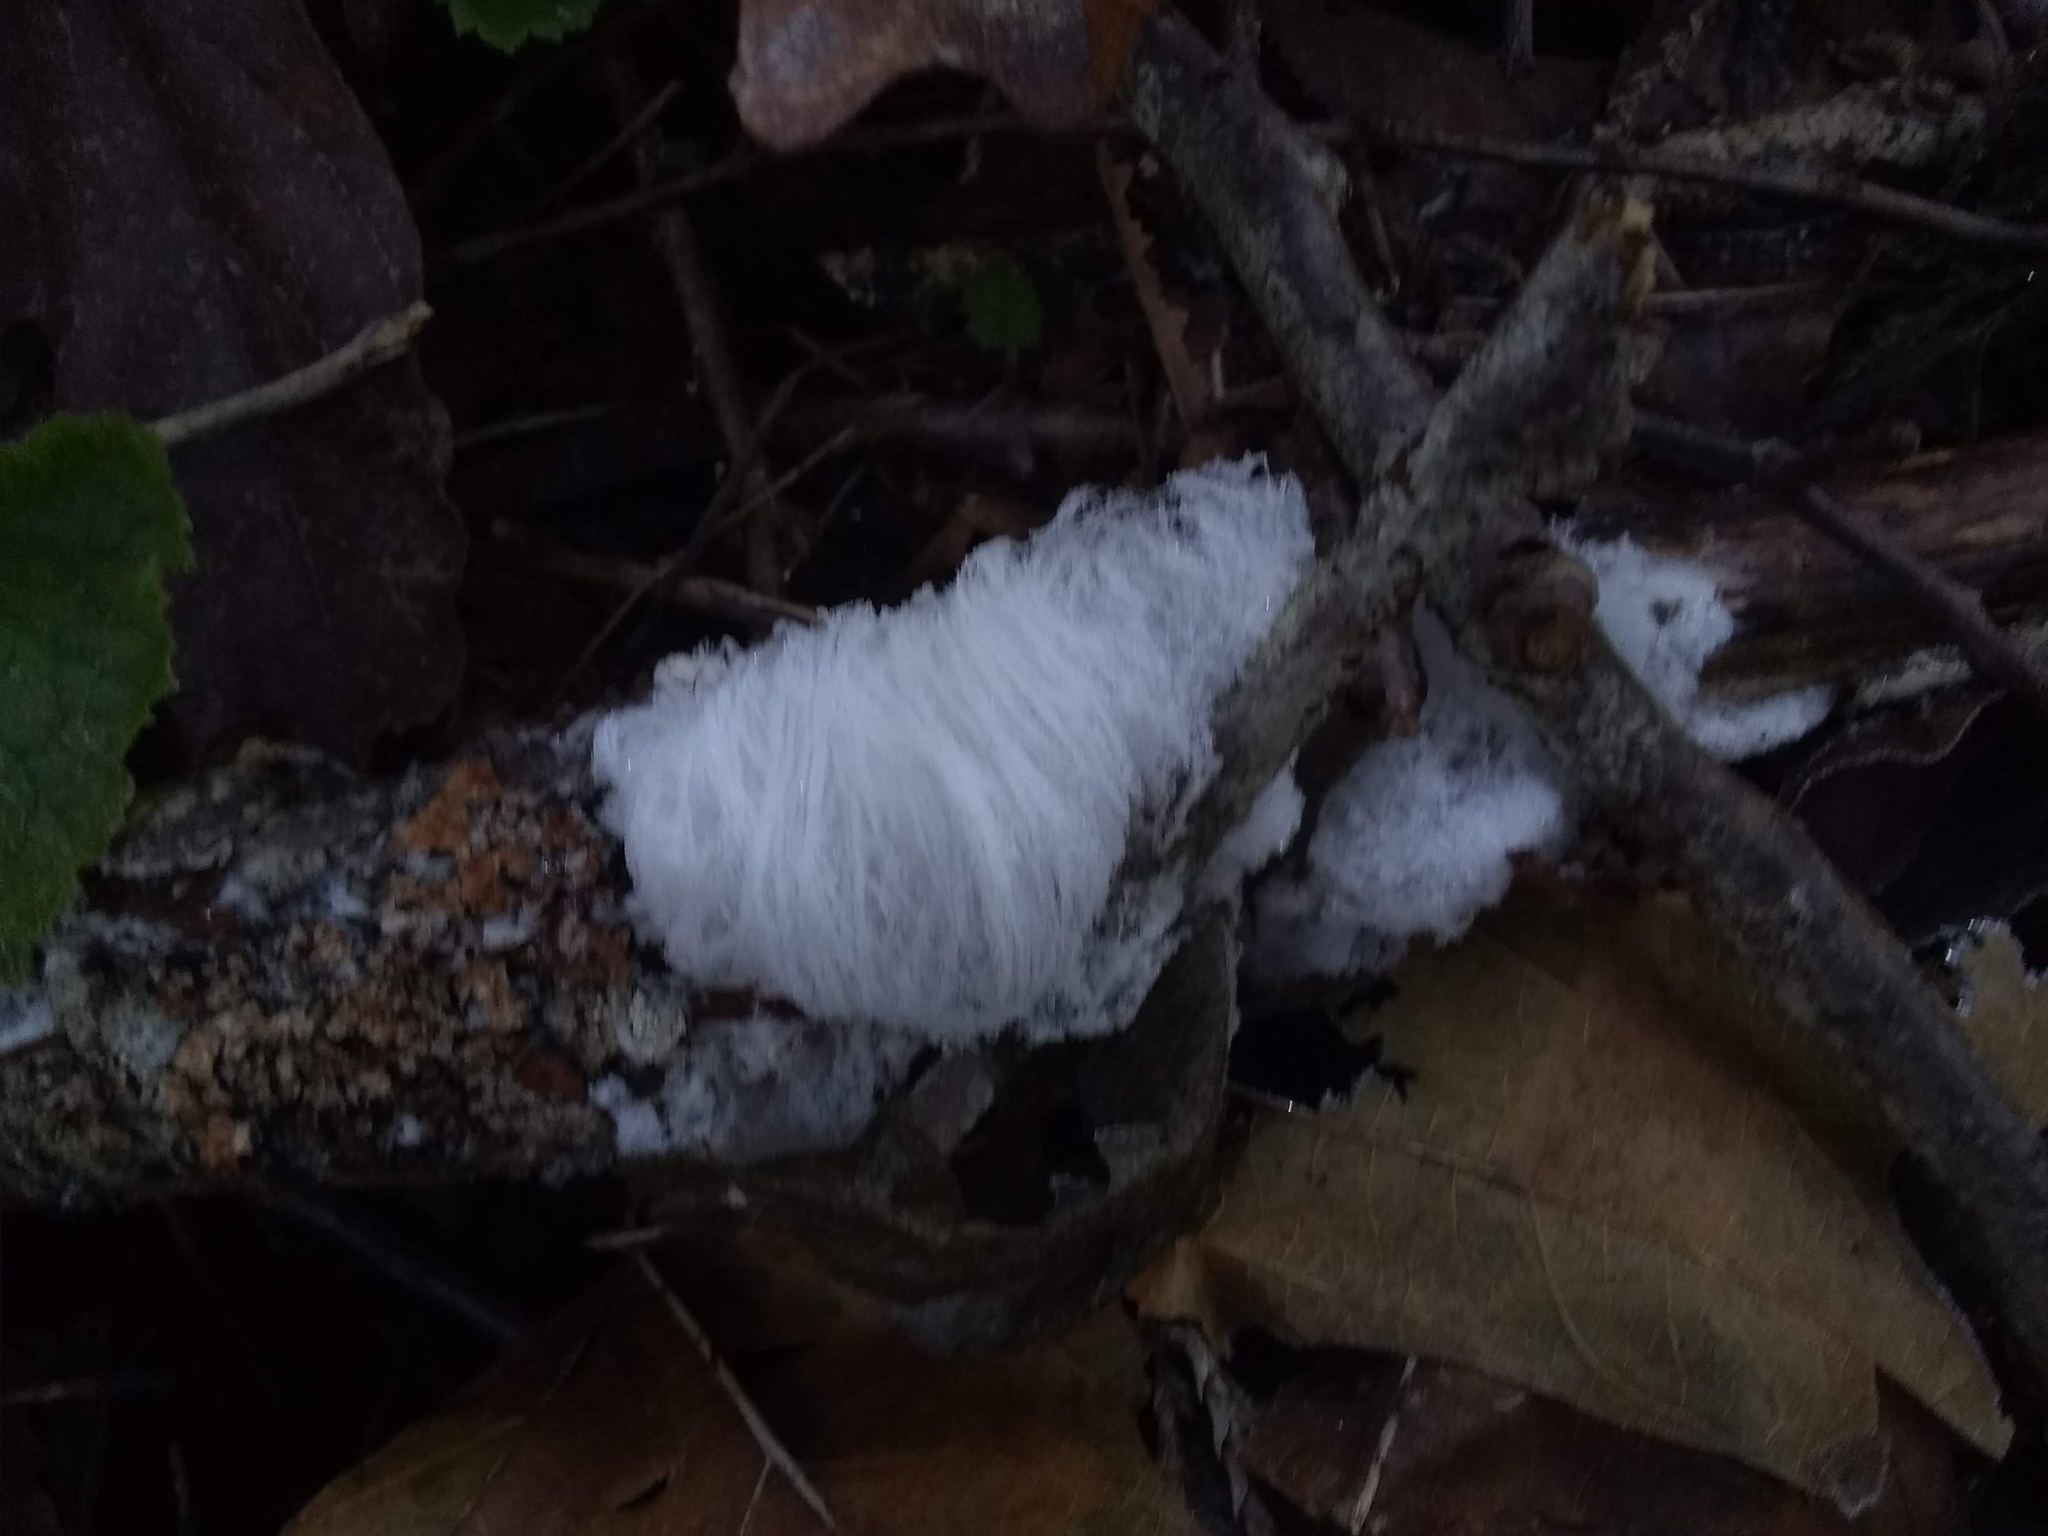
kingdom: Fungi
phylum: Basidiomycota
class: Agaricomycetes
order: Auriculariales
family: Auriculariaceae
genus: Exidiopsis
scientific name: Exidiopsis effusa
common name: Hair ice crust
